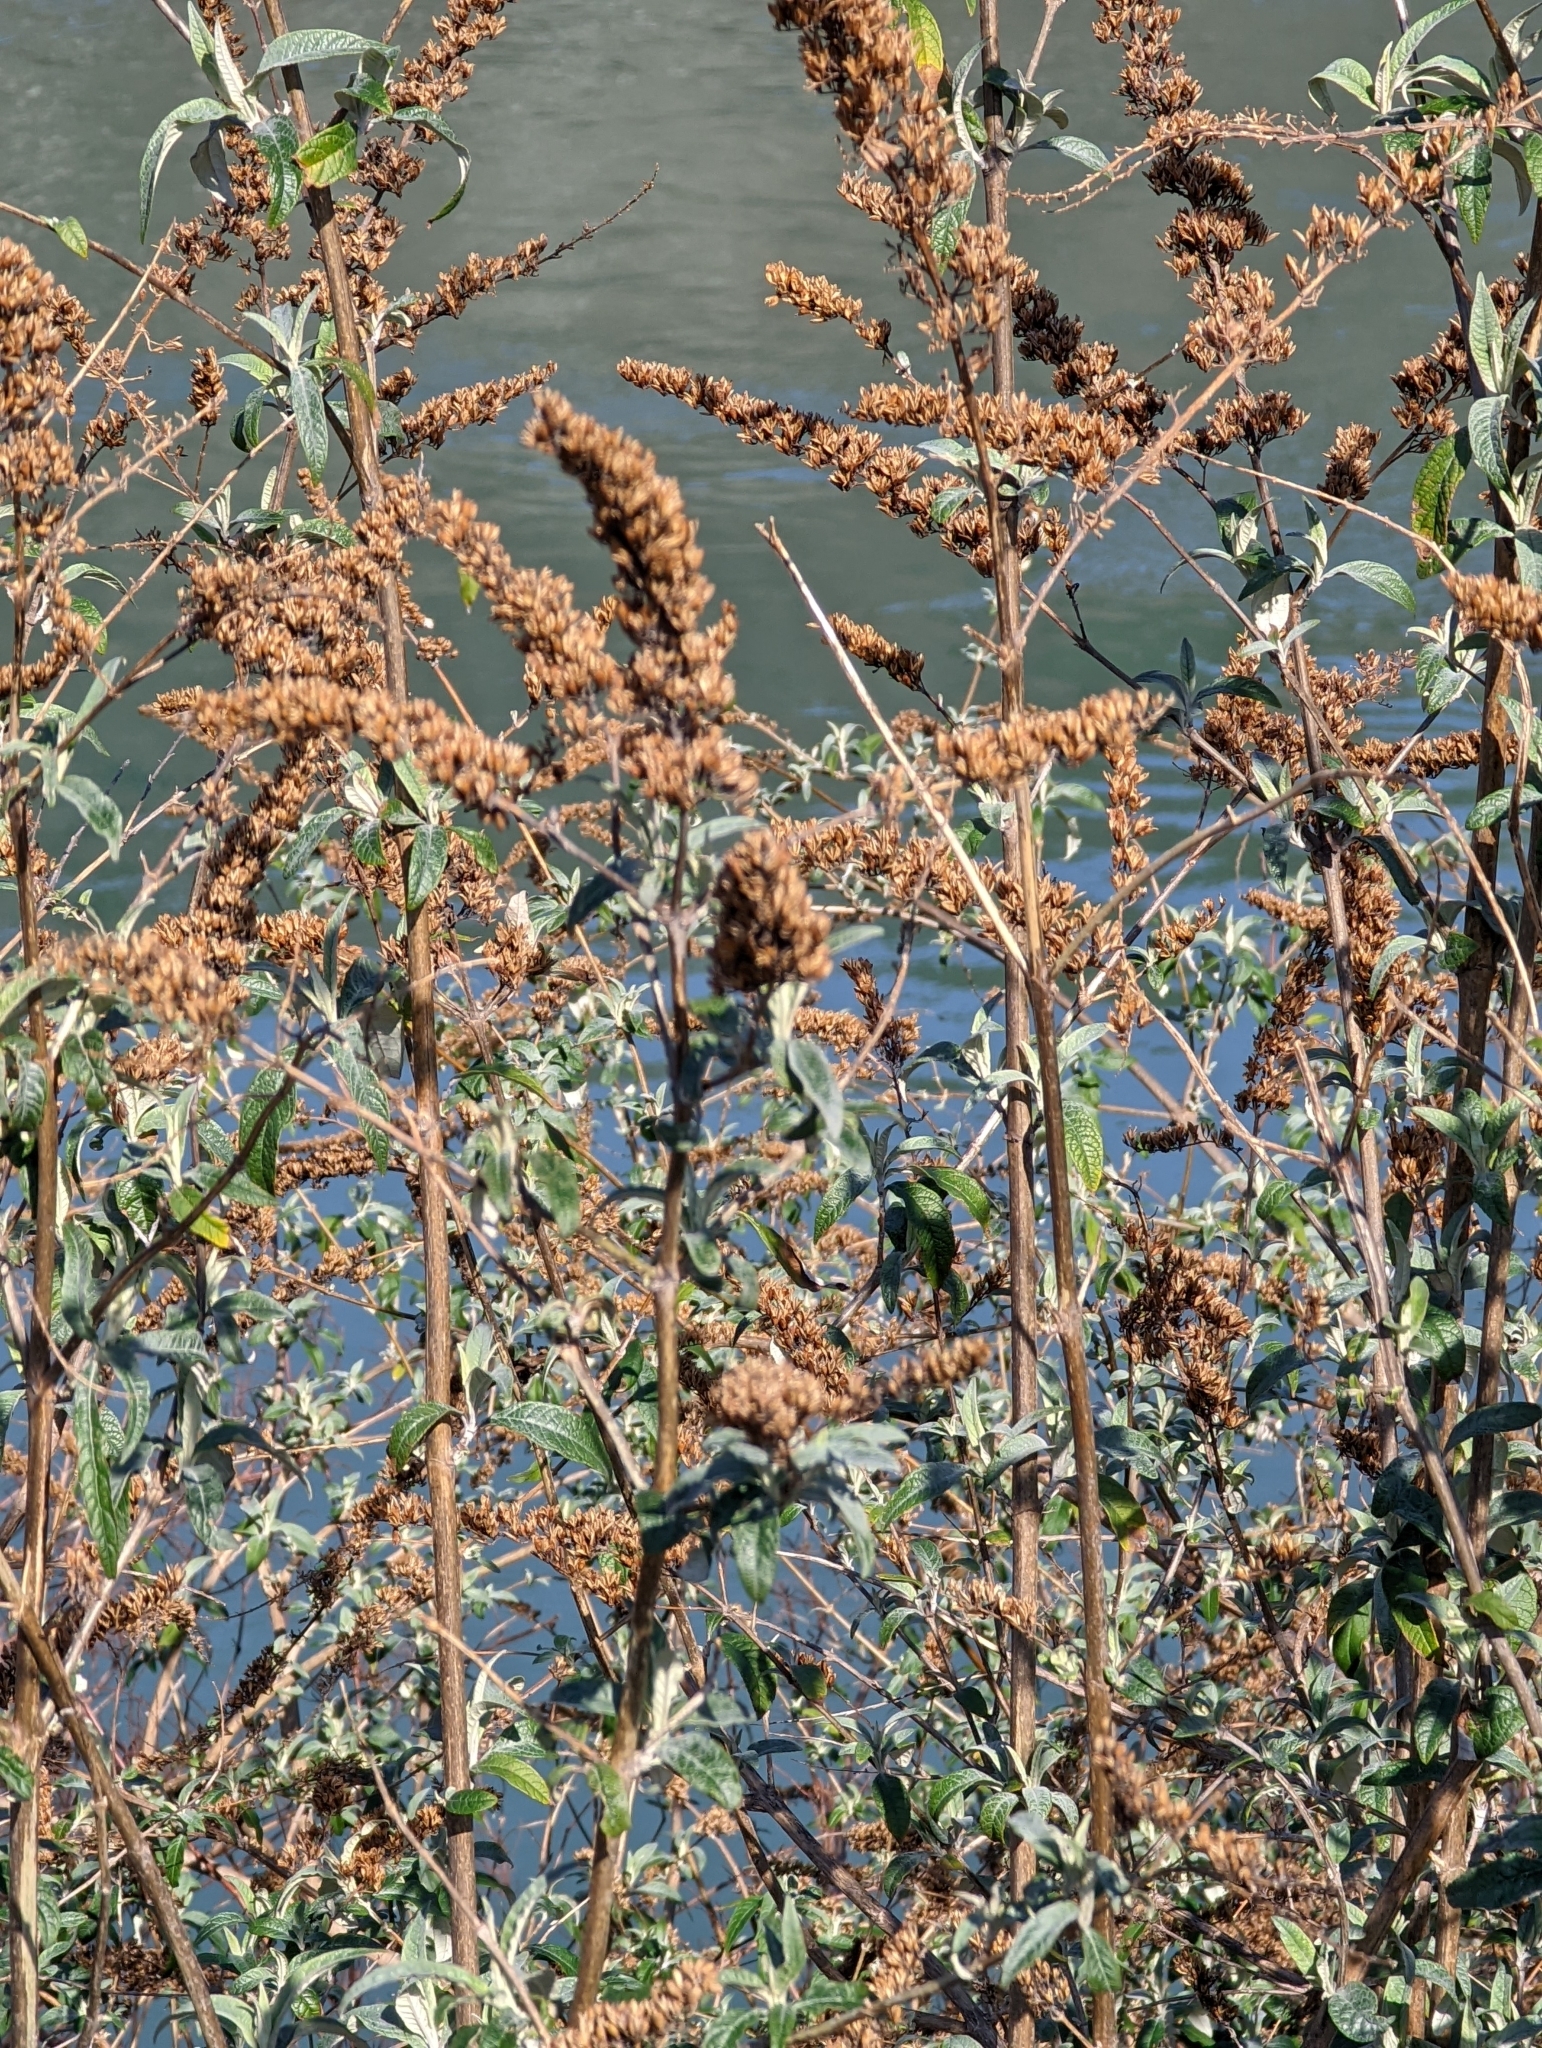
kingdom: Plantae
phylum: Tracheophyta
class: Magnoliopsida
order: Lamiales
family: Scrophulariaceae
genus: Buddleja
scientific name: Buddleja davidii
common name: Butterfly-bush
